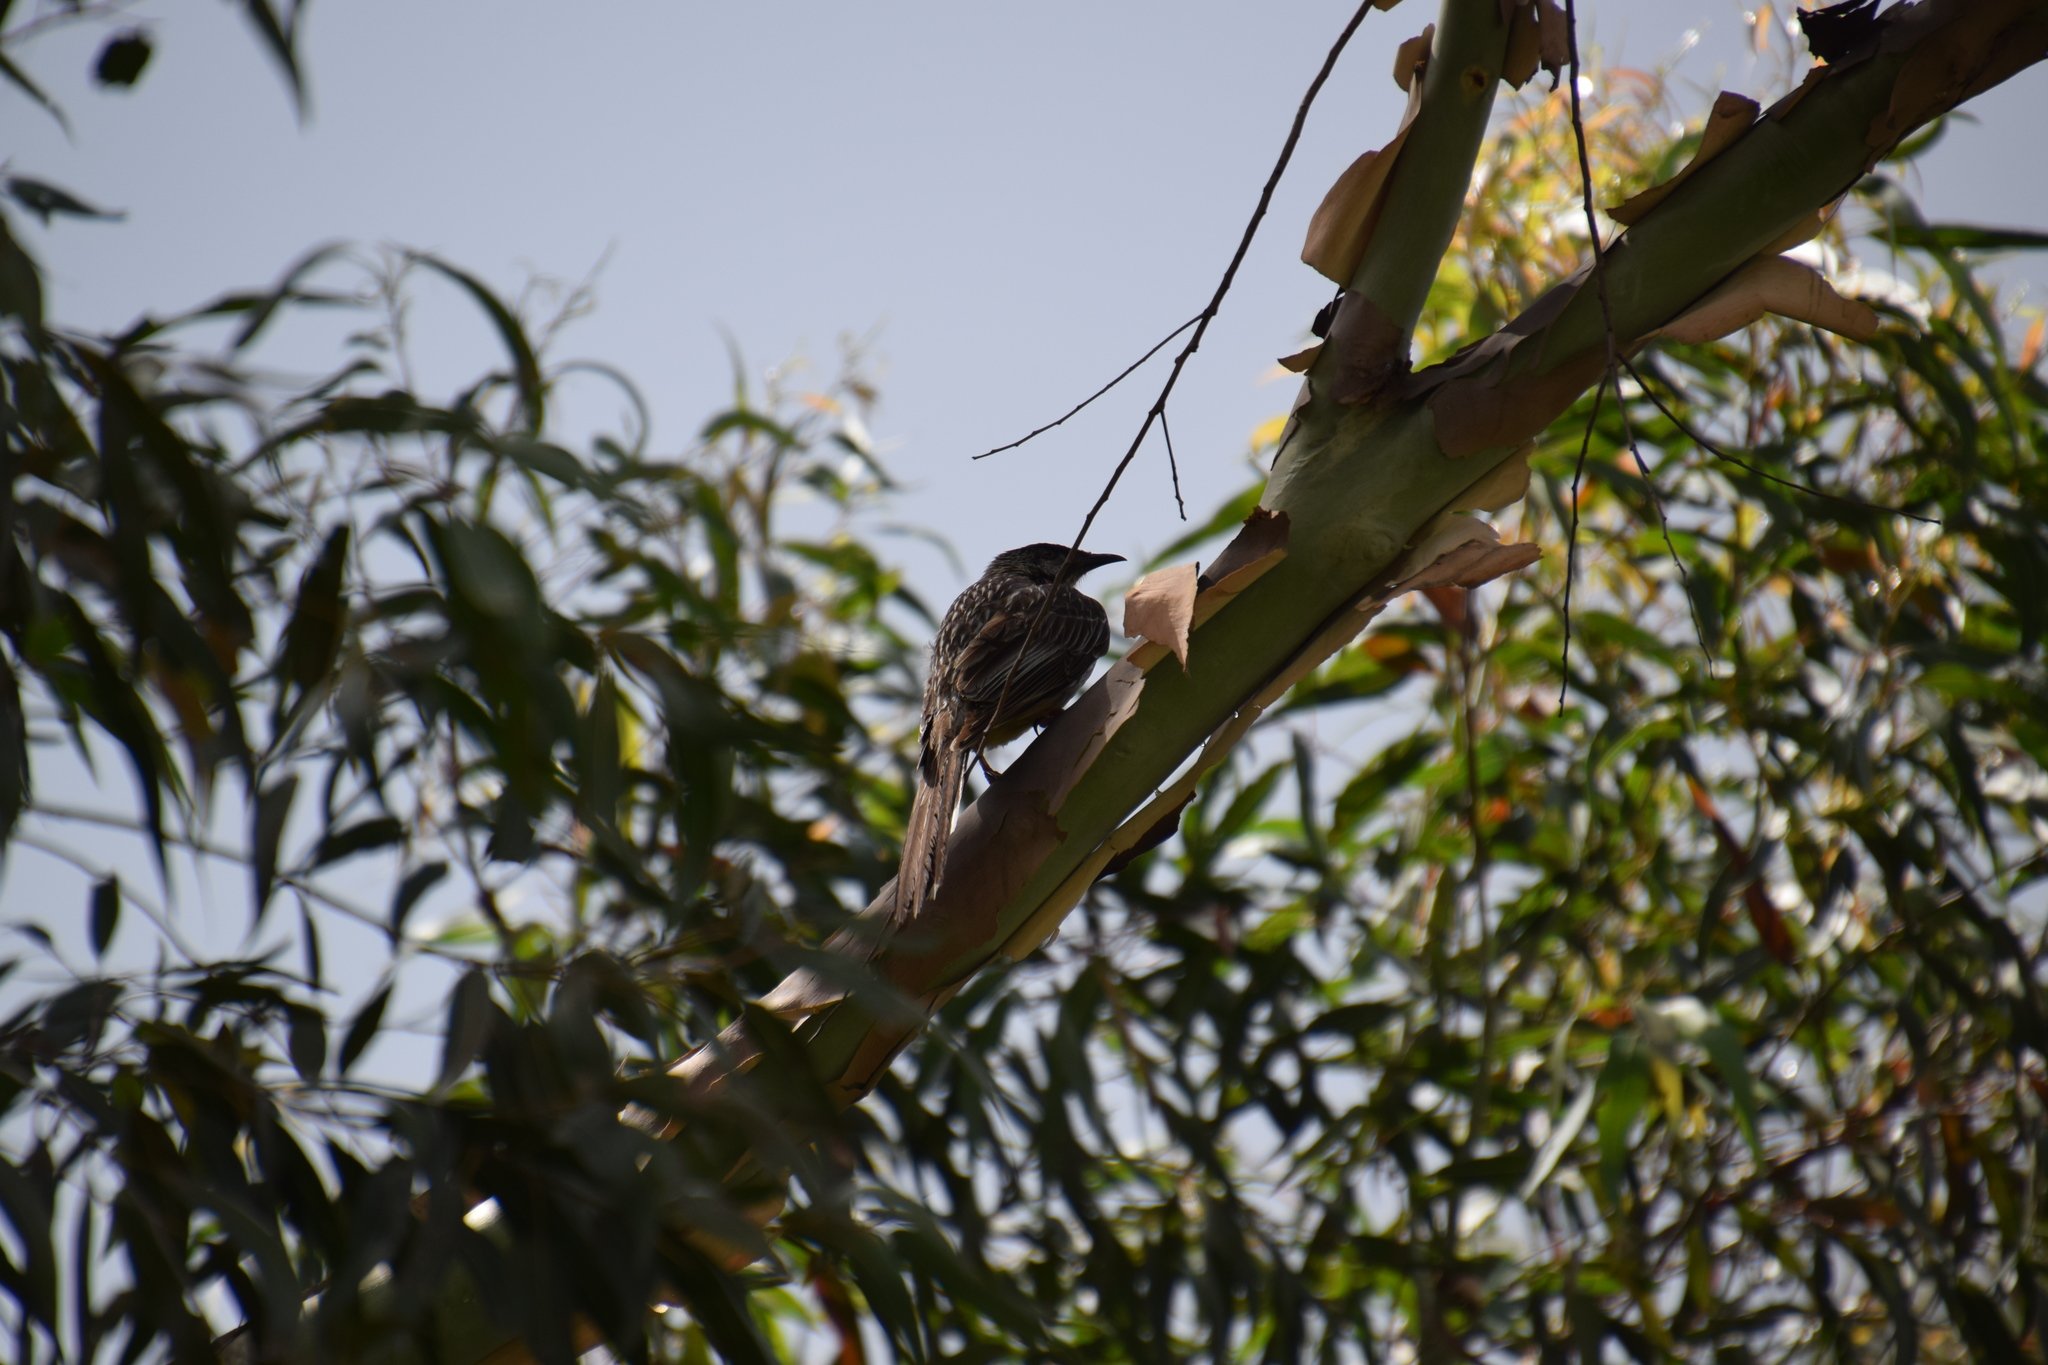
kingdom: Animalia
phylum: Chordata
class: Aves
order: Passeriformes
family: Meliphagidae
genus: Anthochaera
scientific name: Anthochaera carunculata
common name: Red wattlebird
